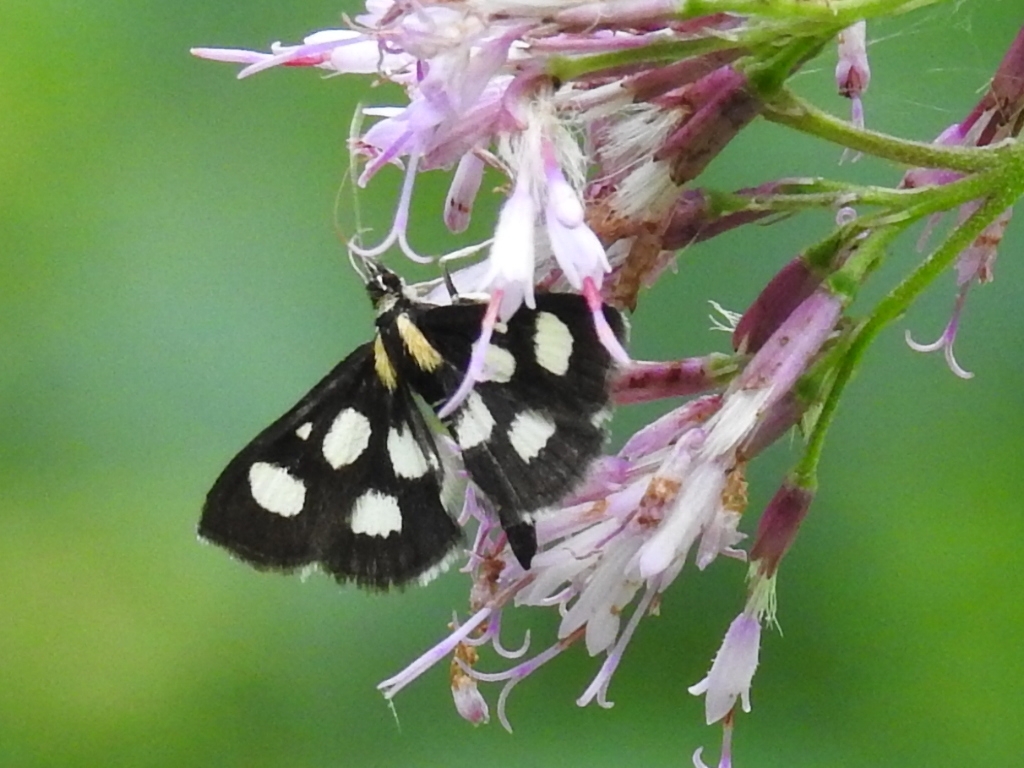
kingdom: Animalia
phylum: Arthropoda
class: Insecta
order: Lepidoptera
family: Crambidae
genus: Anania
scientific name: Anania funebris
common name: White-spotted sable moth
